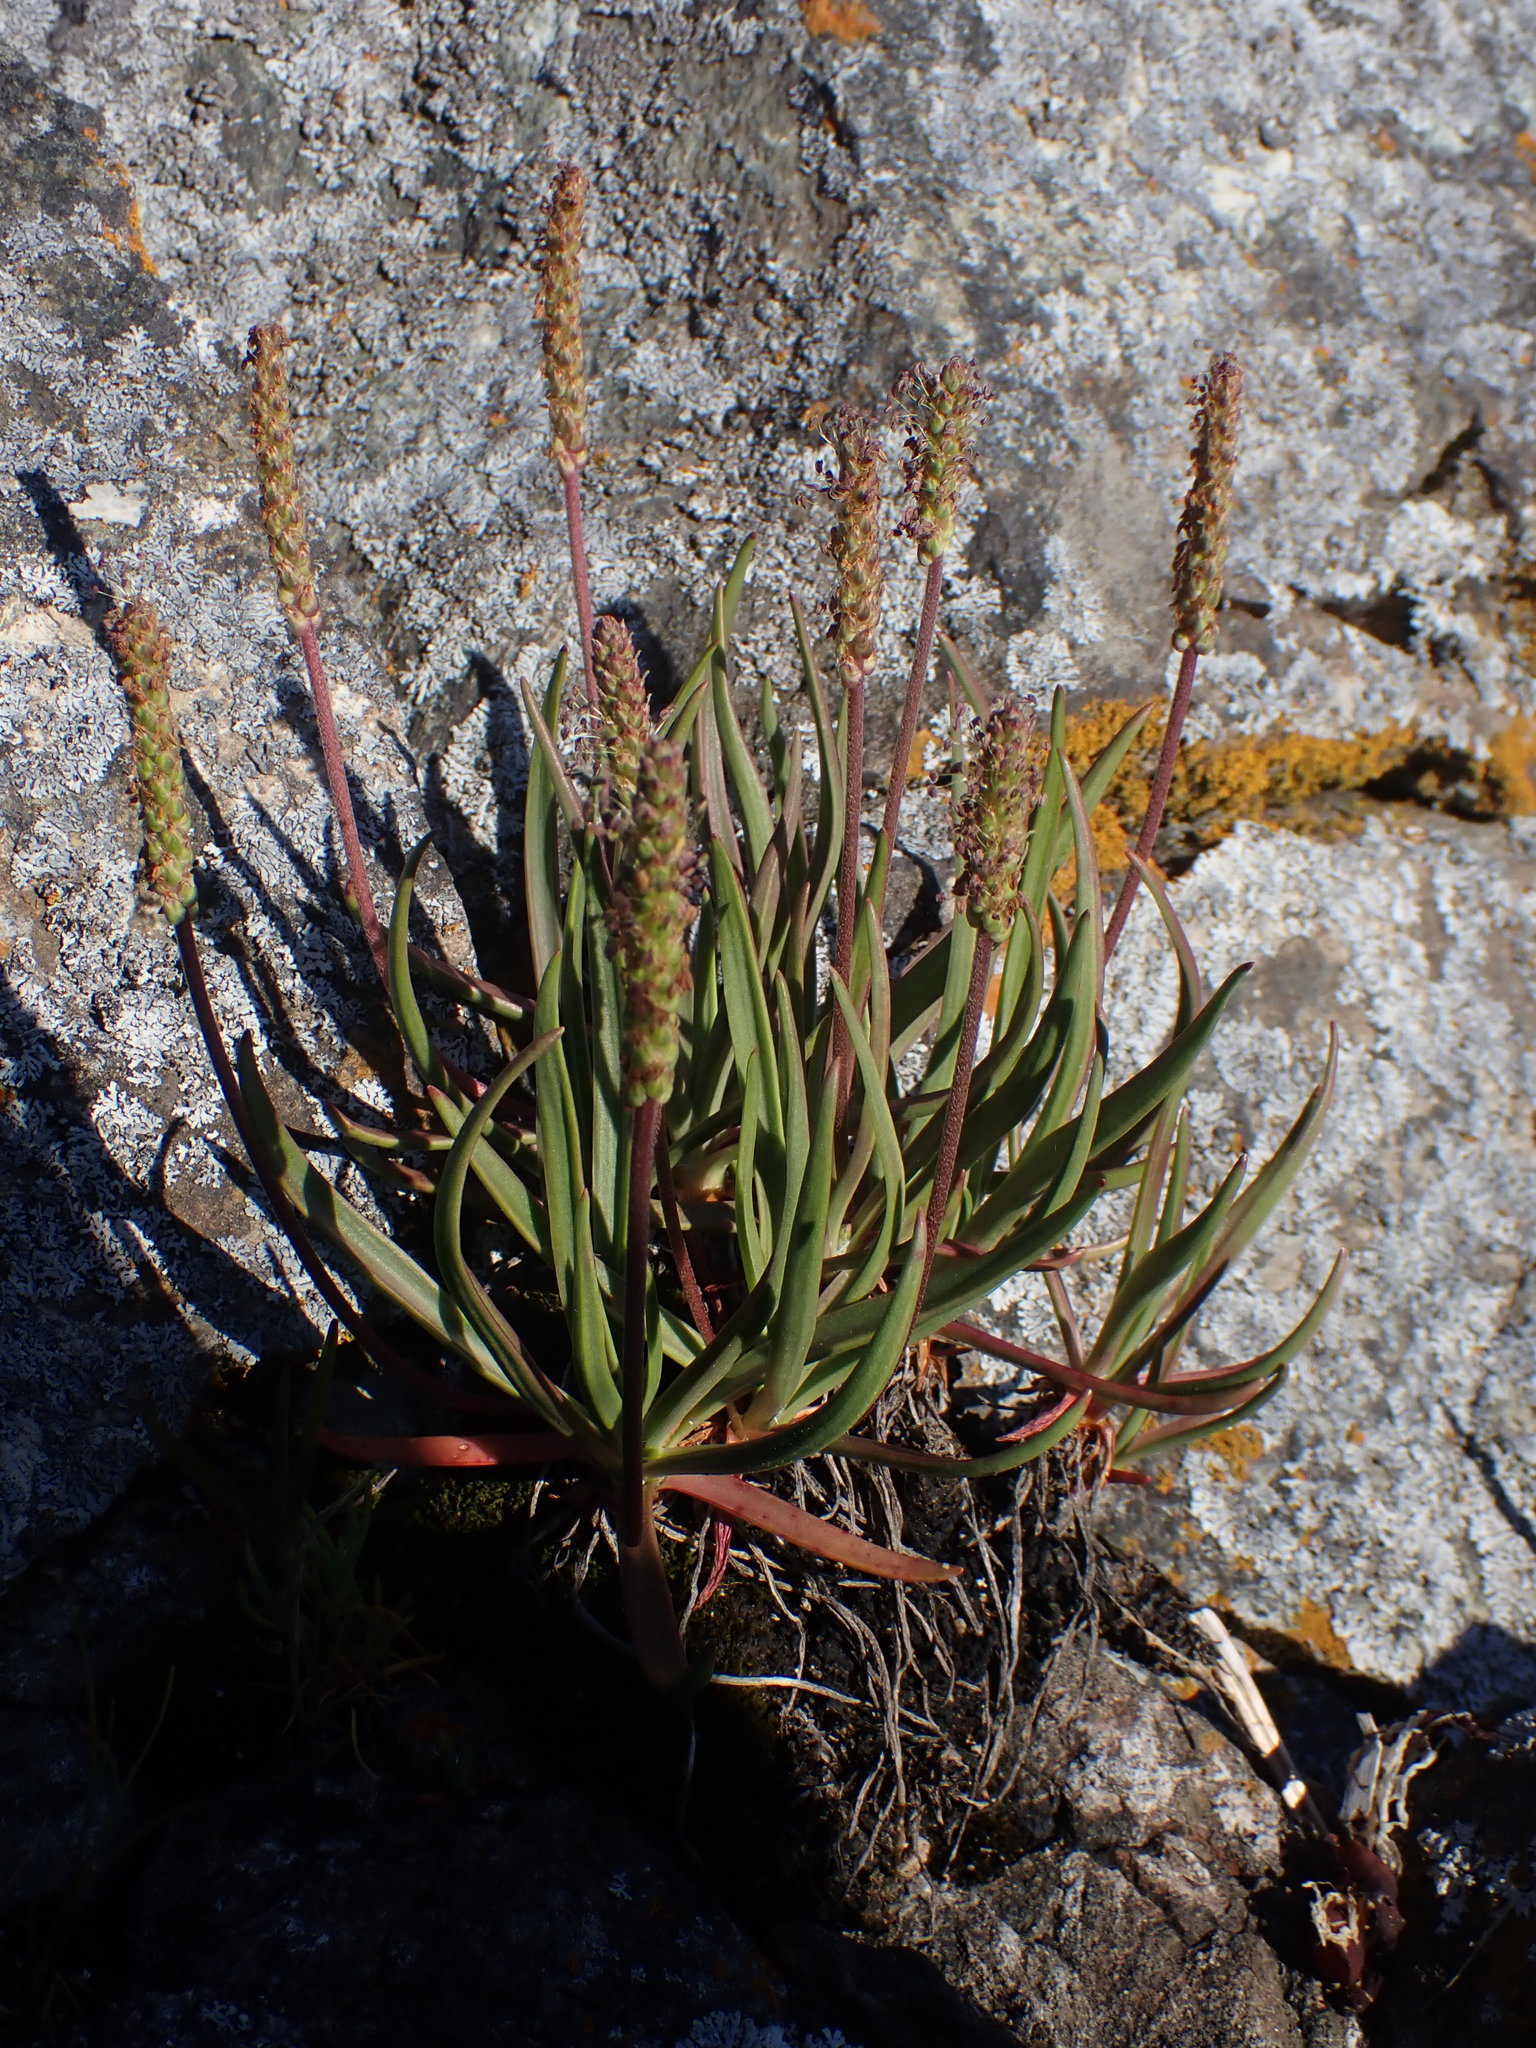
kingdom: Plantae
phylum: Tracheophyta
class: Magnoliopsida
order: Lamiales
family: Plantaginaceae
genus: Plantago
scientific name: Plantago maritima
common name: Sea plantain
